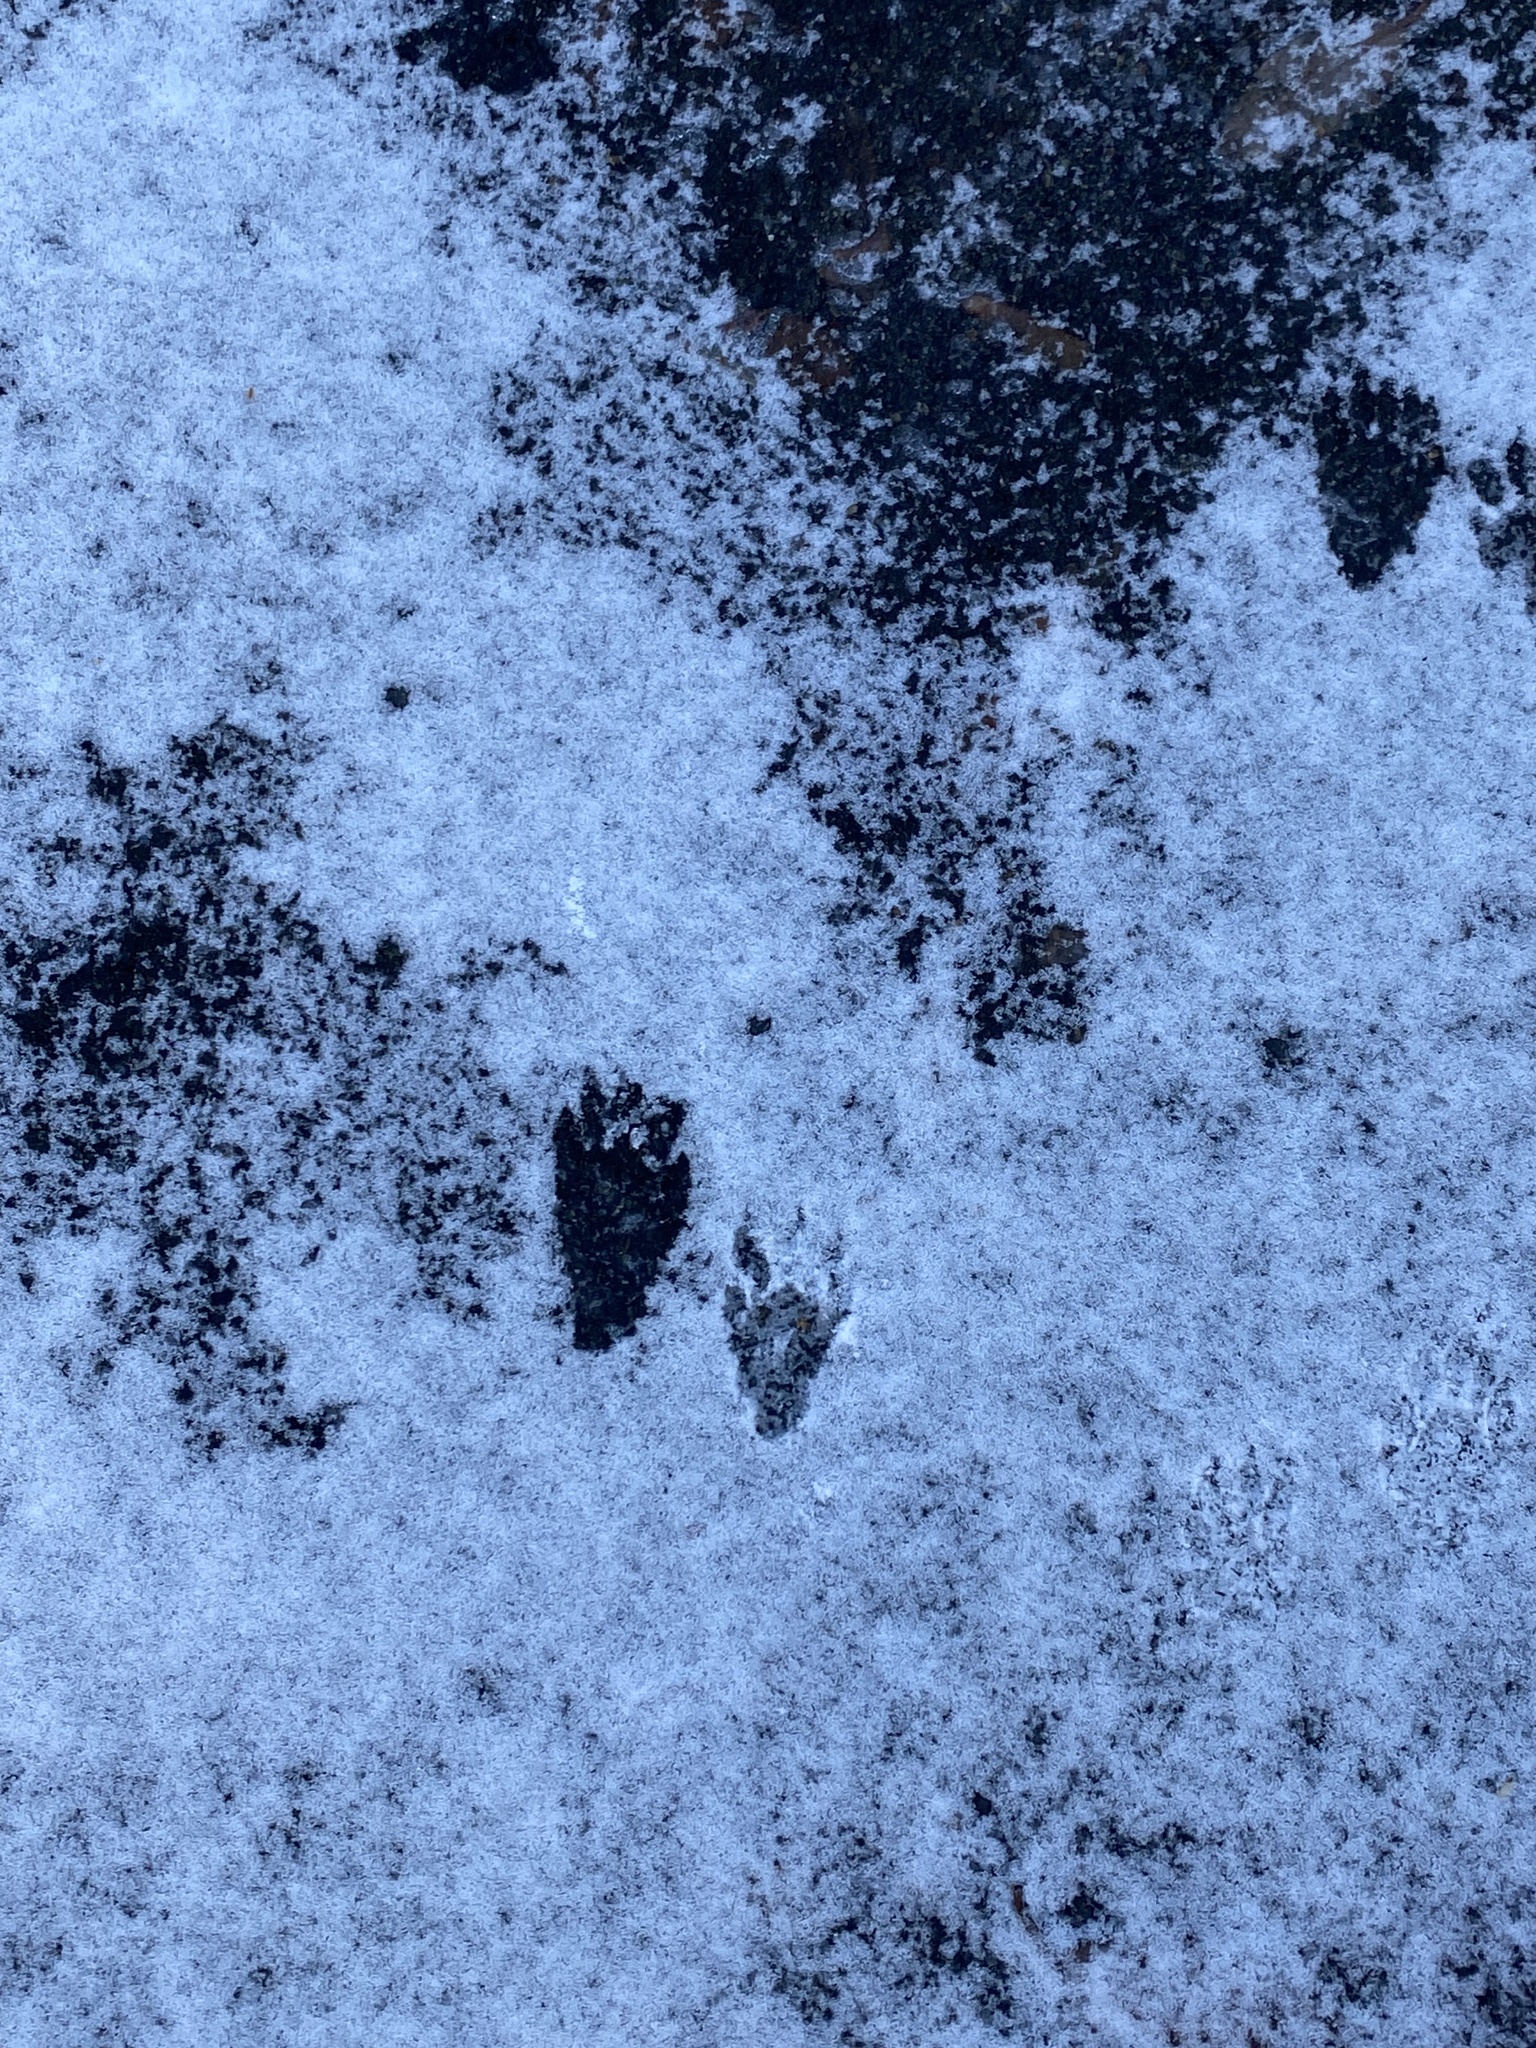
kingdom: Animalia
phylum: Chordata
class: Mammalia
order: Carnivora
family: Procyonidae
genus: Procyon
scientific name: Procyon lotor
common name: Raccoon
